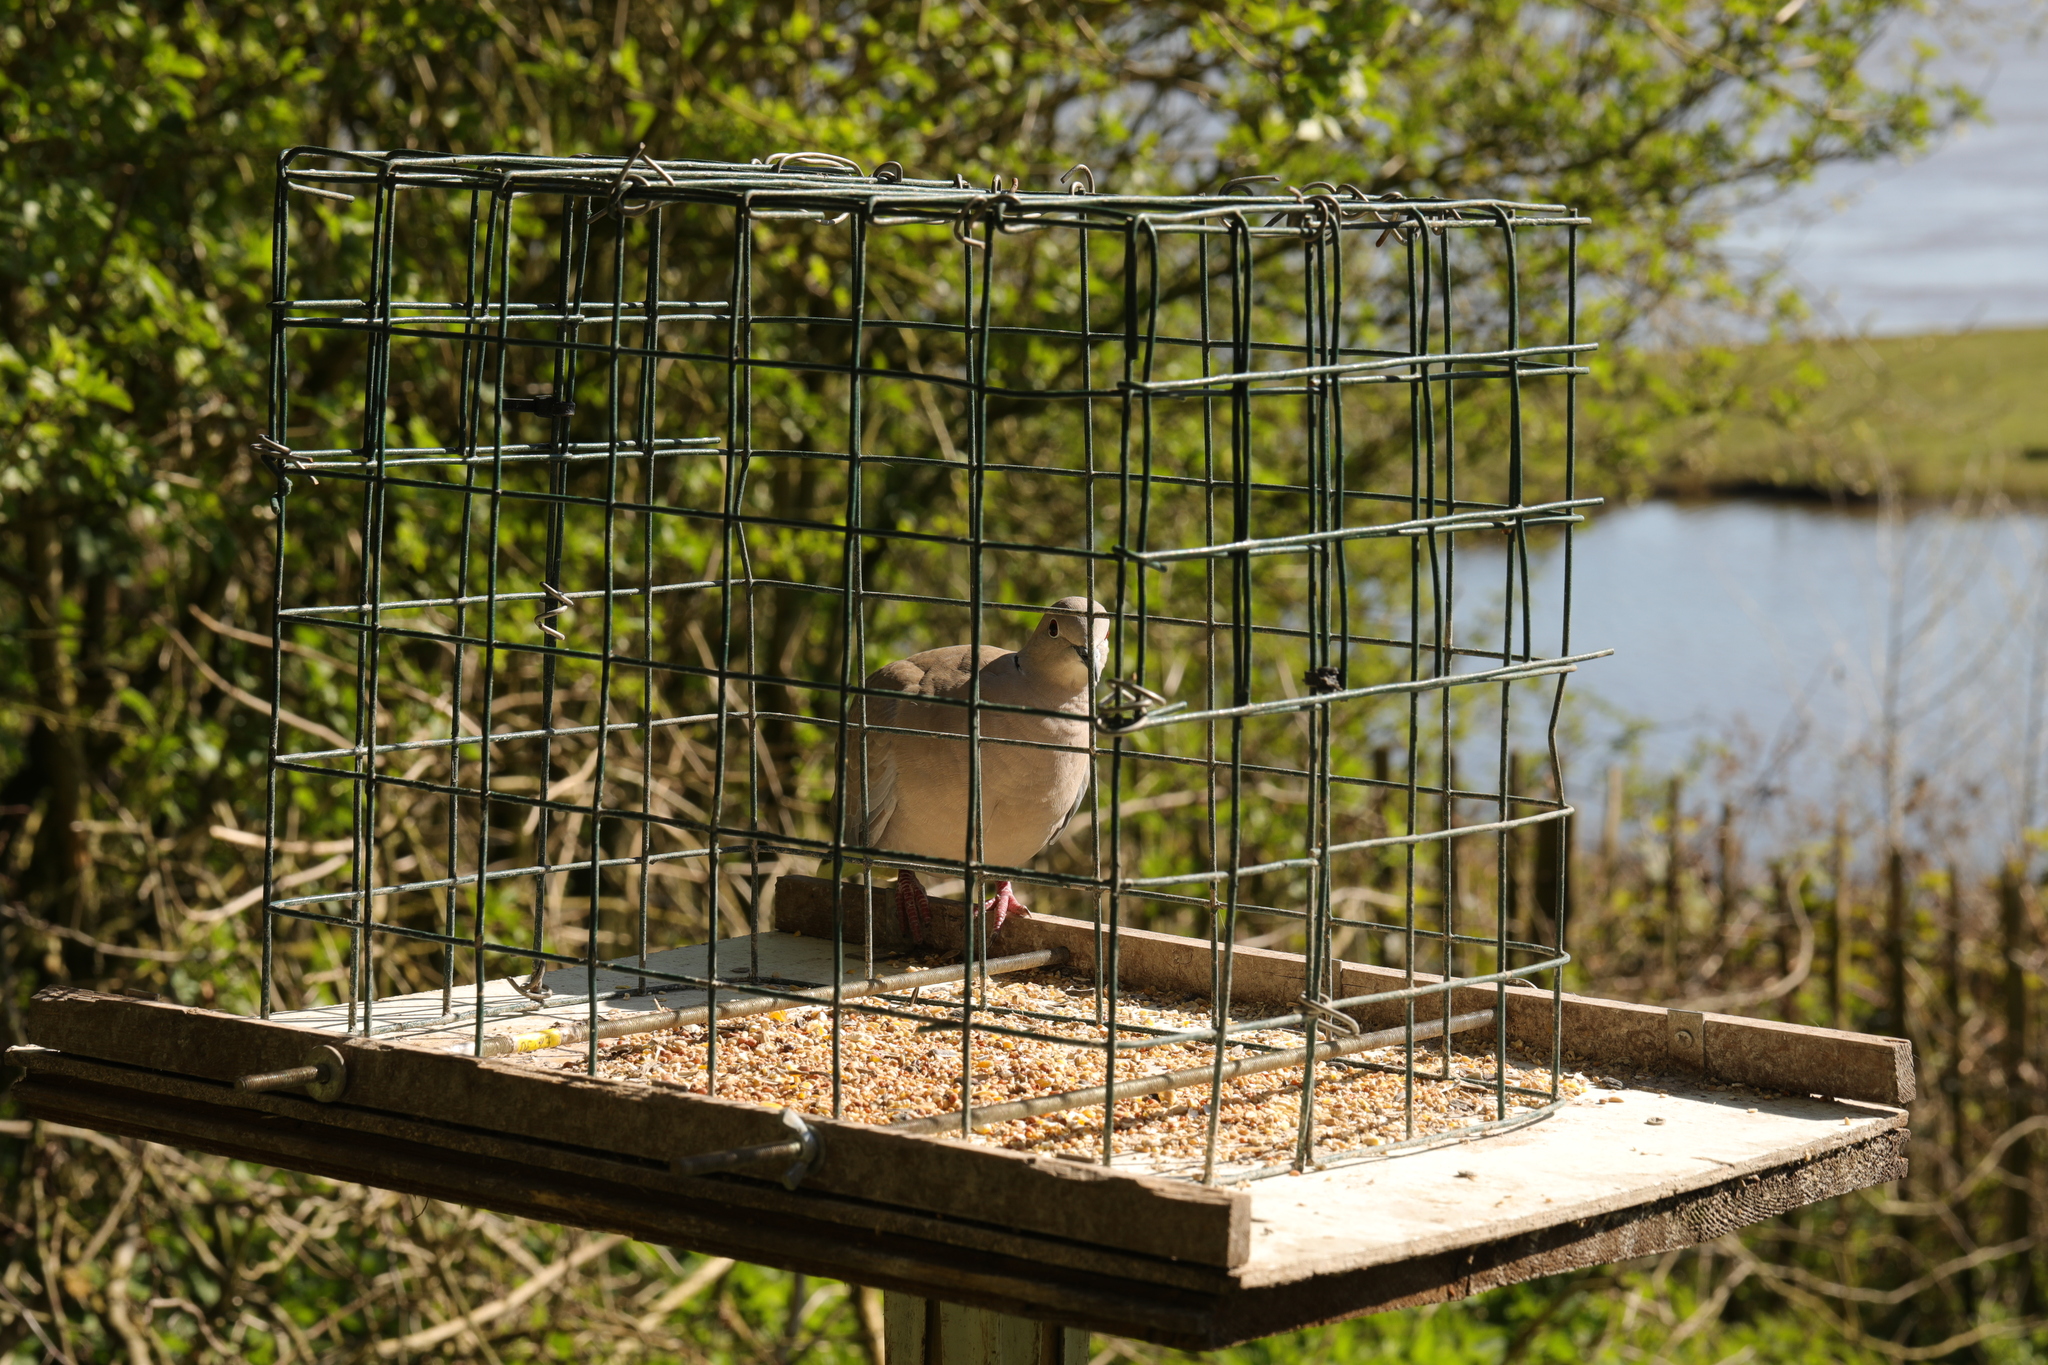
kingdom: Animalia
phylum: Chordata
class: Aves
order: Columbiformes
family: Columbidae
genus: Streptopelia
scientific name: Streptopelia decaocto
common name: Eurasian collared dove
